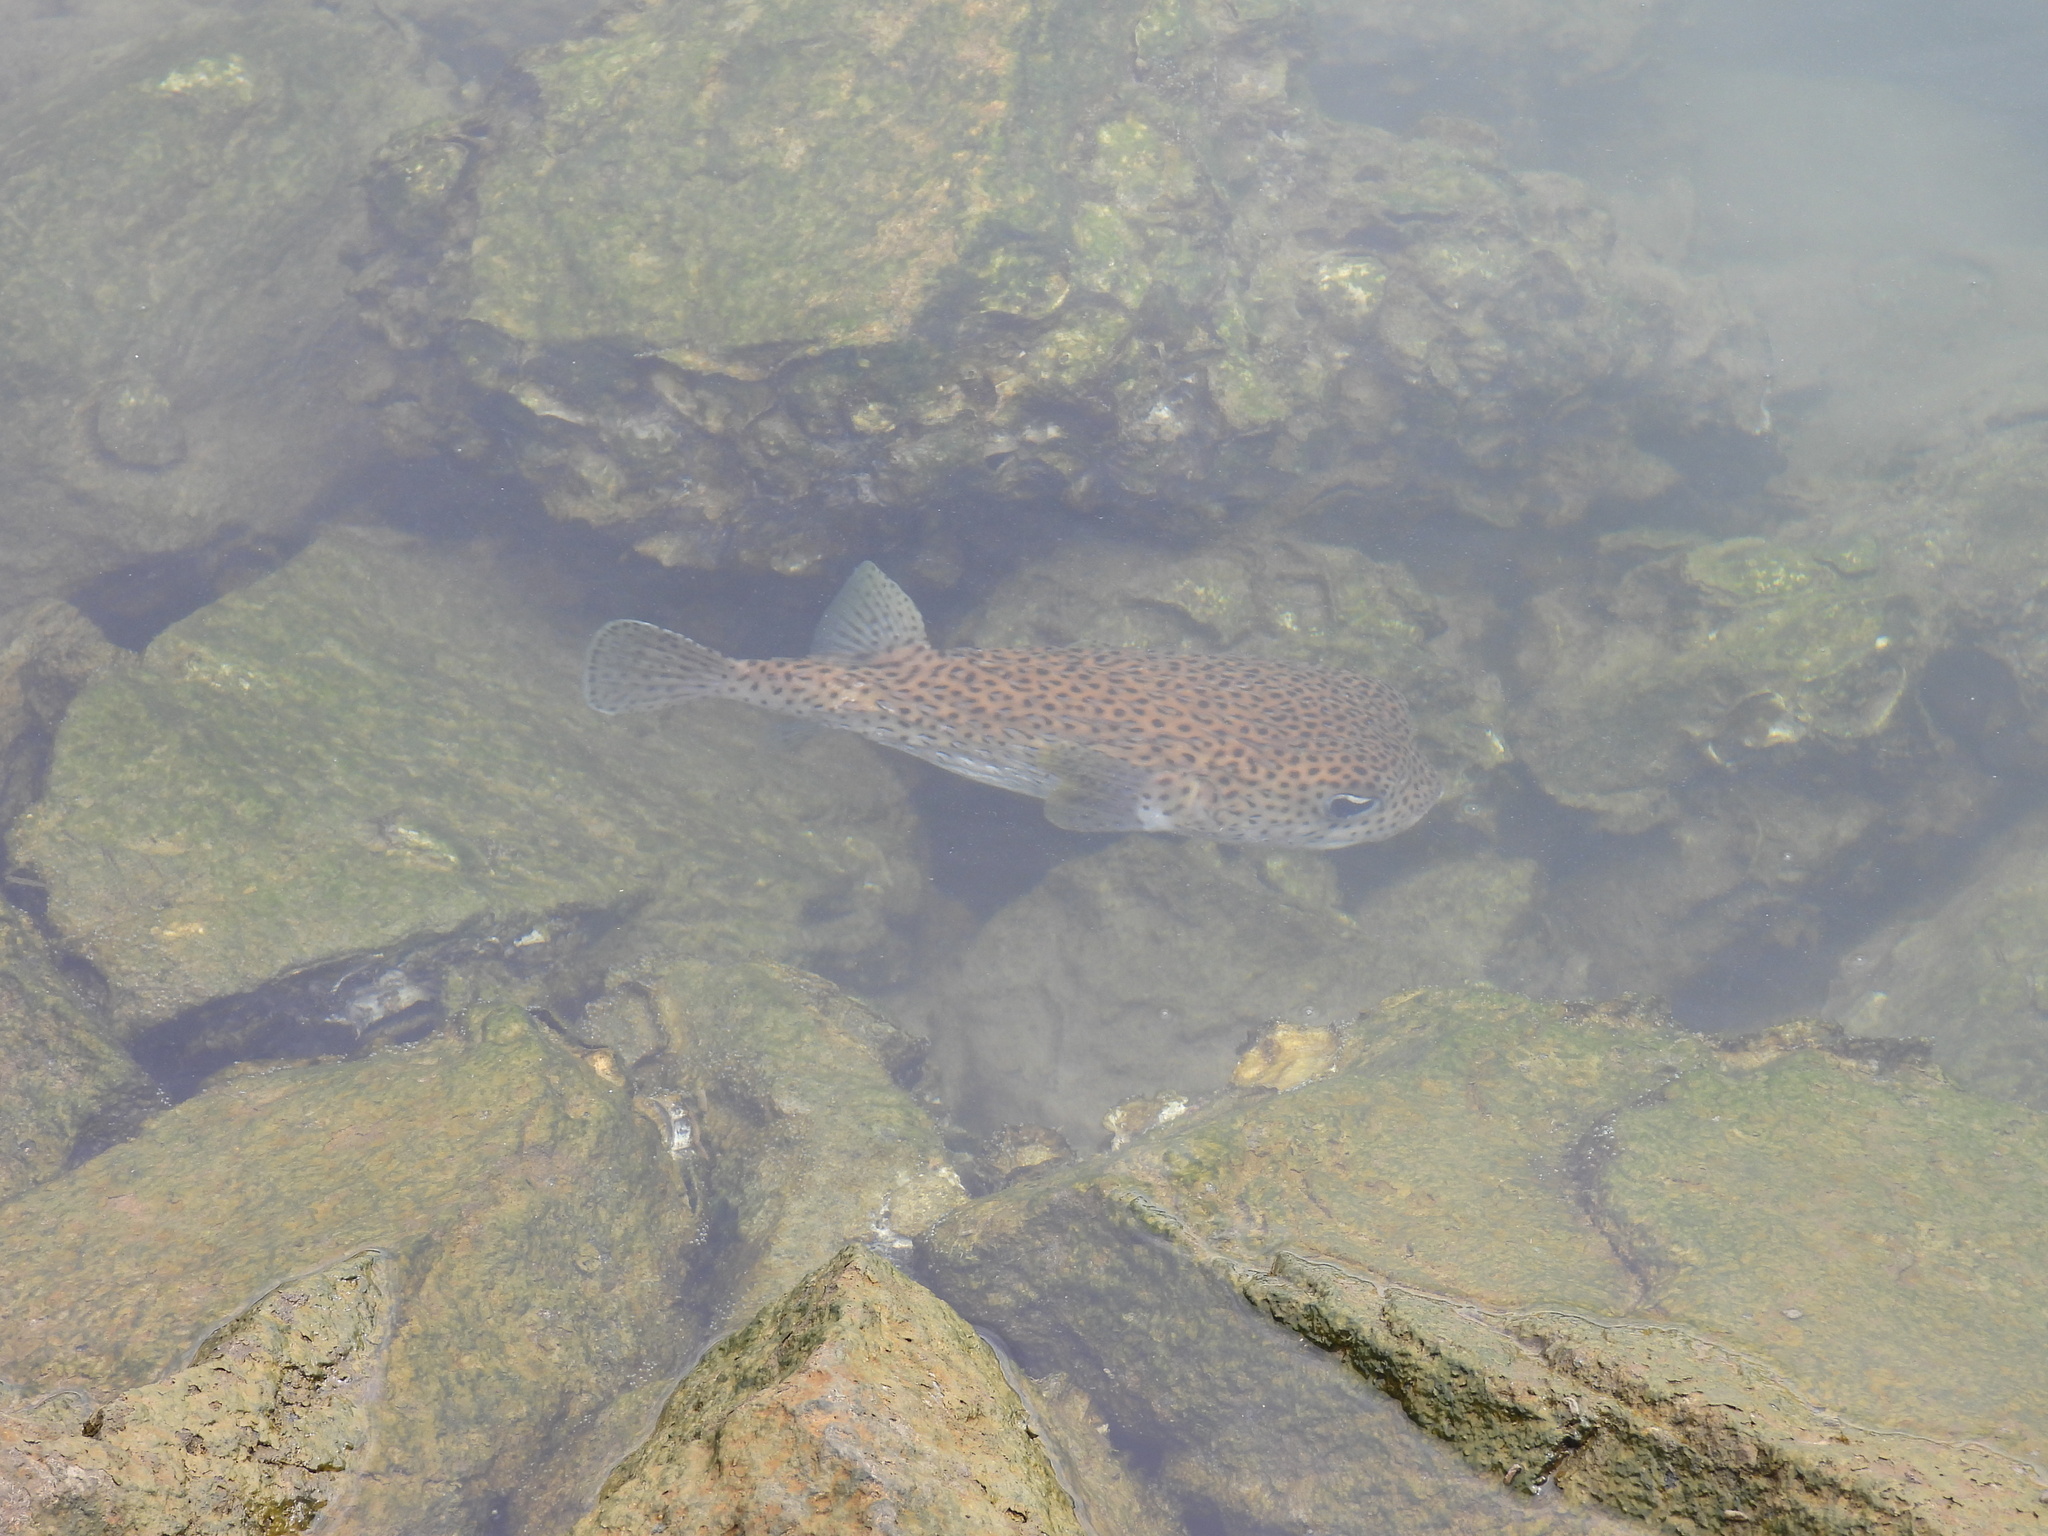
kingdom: Animalia
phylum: Chordata
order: Tetraodontiformes
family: Diodontidae
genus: Diodon
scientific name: Diodon hystrix
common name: Giant porcupinefish
